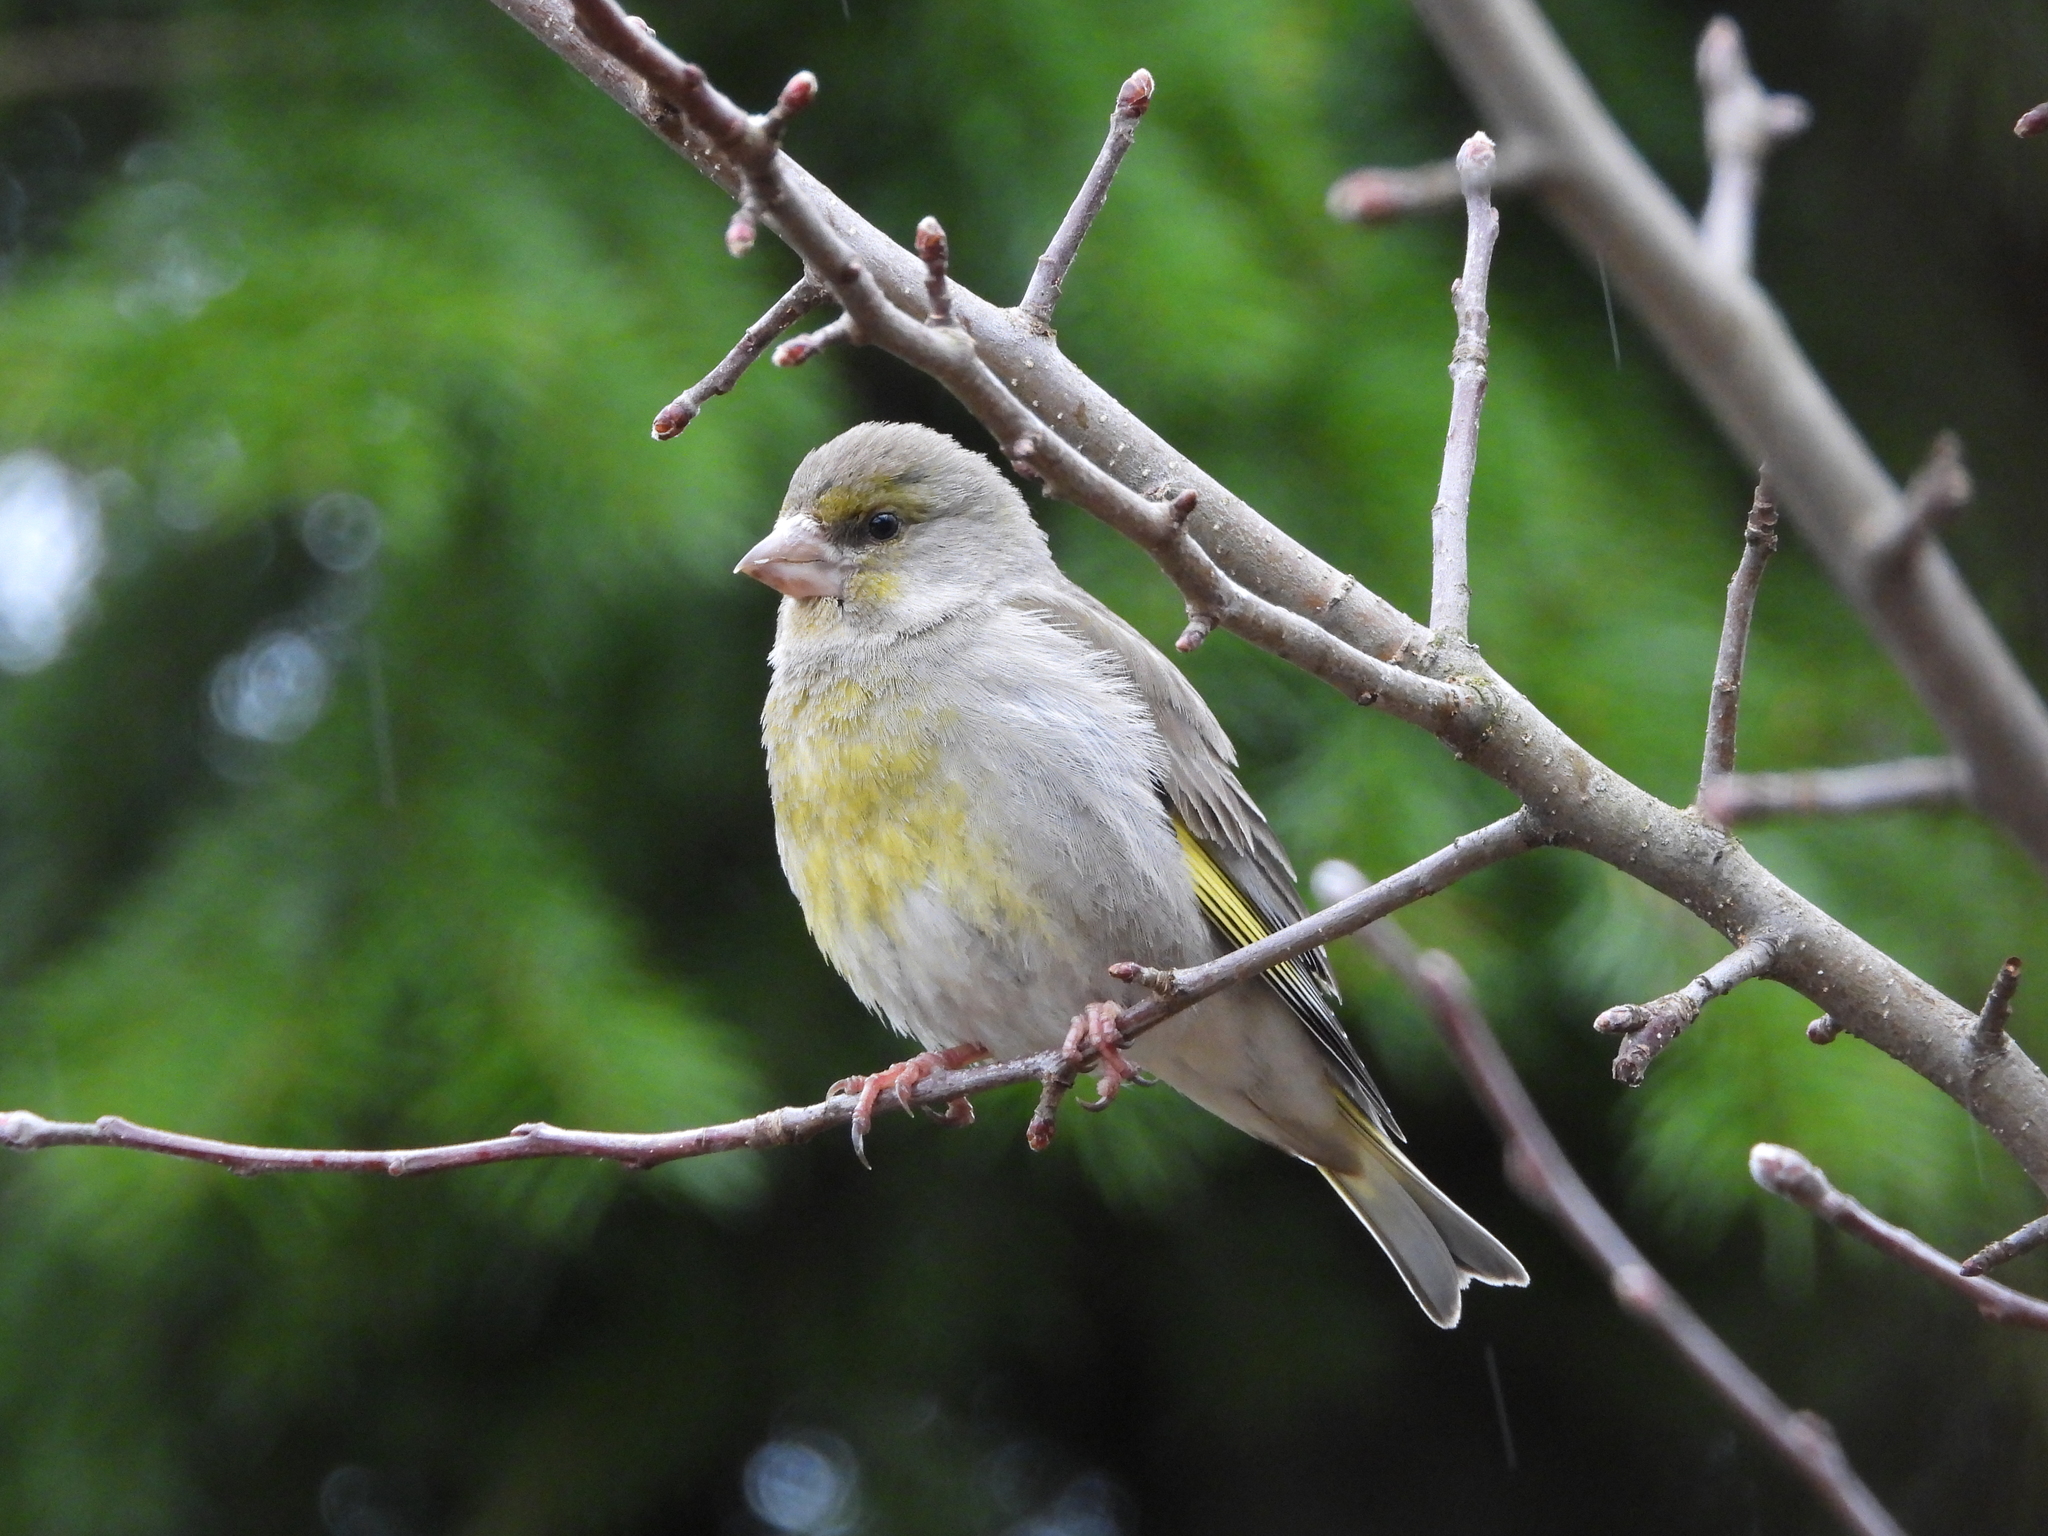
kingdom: Plantae
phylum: Tracheophyta
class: Liliopsida
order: Poales
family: Poaceae
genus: Chloris
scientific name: Chloris chloris
